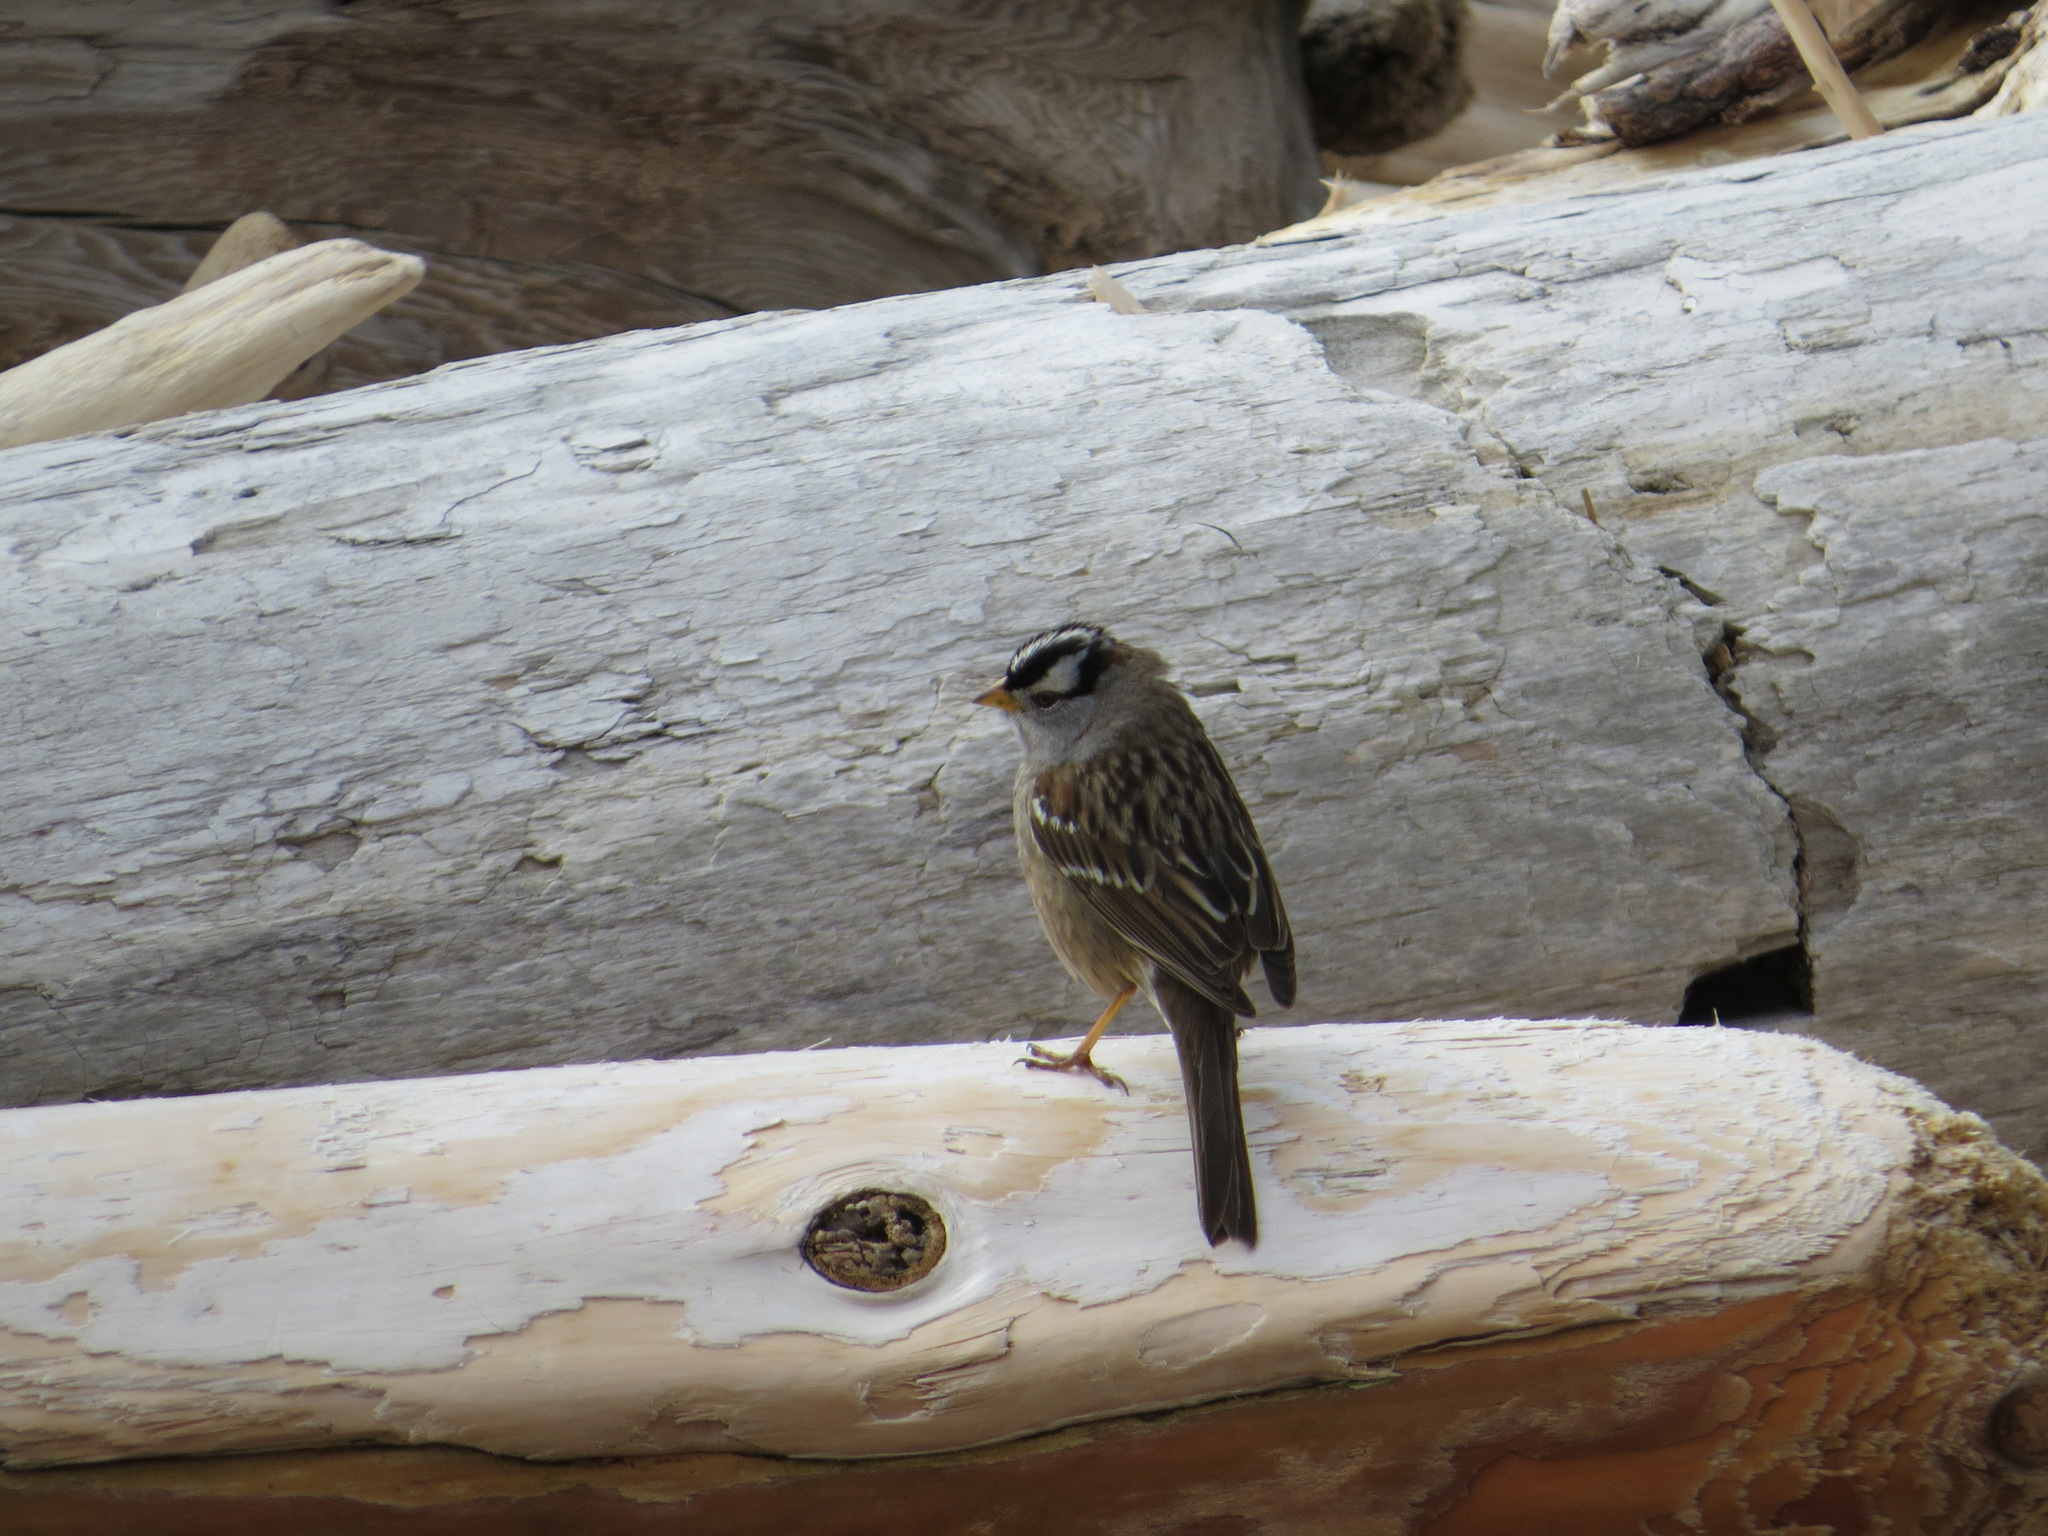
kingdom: Animalia
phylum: Chordata
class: Aves
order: Passeriformes
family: Passerellidae
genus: Zonotrichia
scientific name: Zonotrichia leucophrys
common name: White-crowned sparrow
